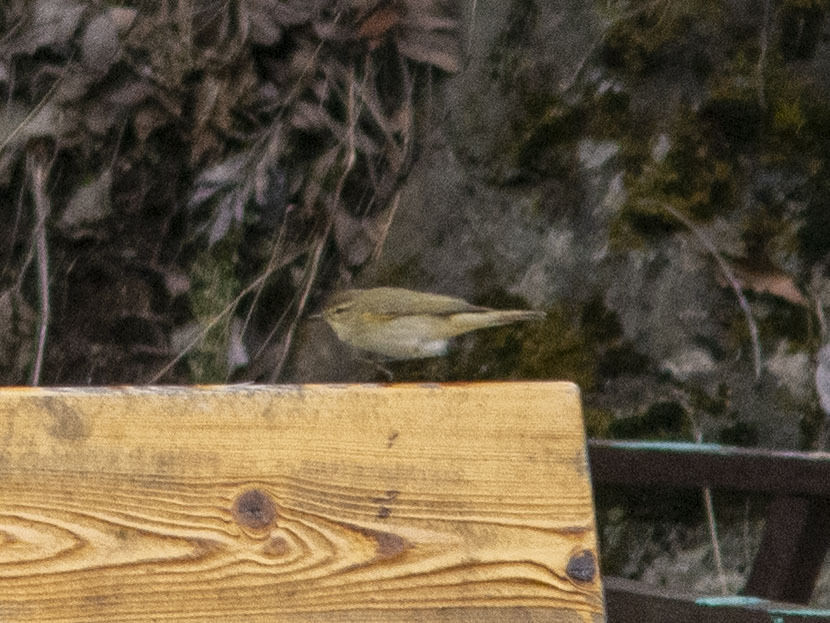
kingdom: Animalia
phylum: Chordata
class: Aves
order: Passeriformes
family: Phylloscopidae
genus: Phylloscopus
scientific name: Phylloscopus collybita
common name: Common chiffchaff
